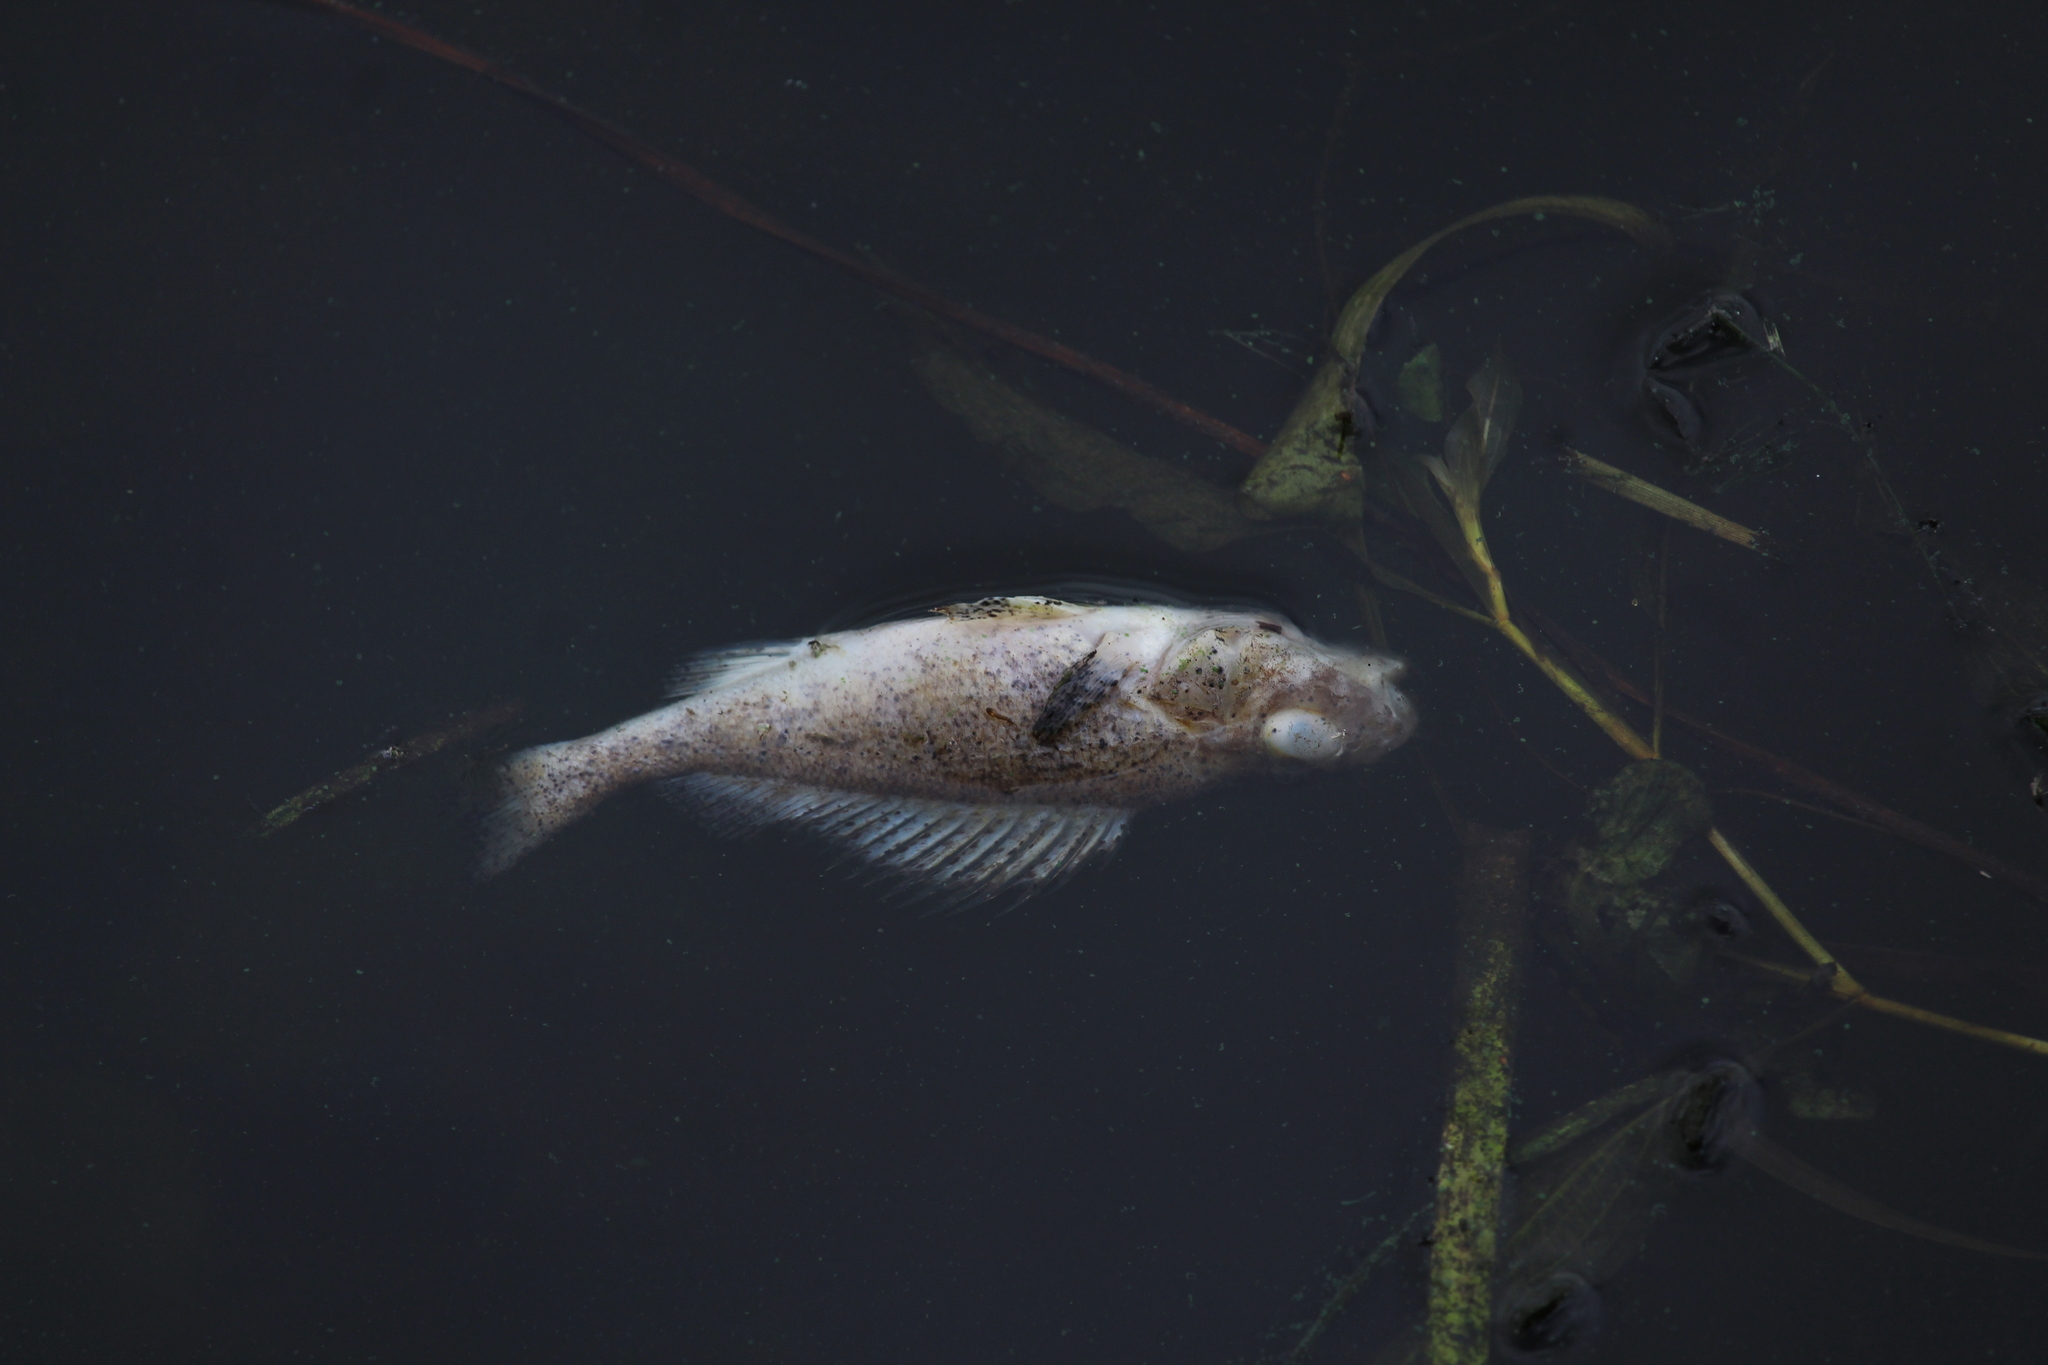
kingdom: Animalia
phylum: Chordata
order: Perciformes
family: Percidae
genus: Gymnocephalus
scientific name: Gymnocephalus cernua
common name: Ruffe
